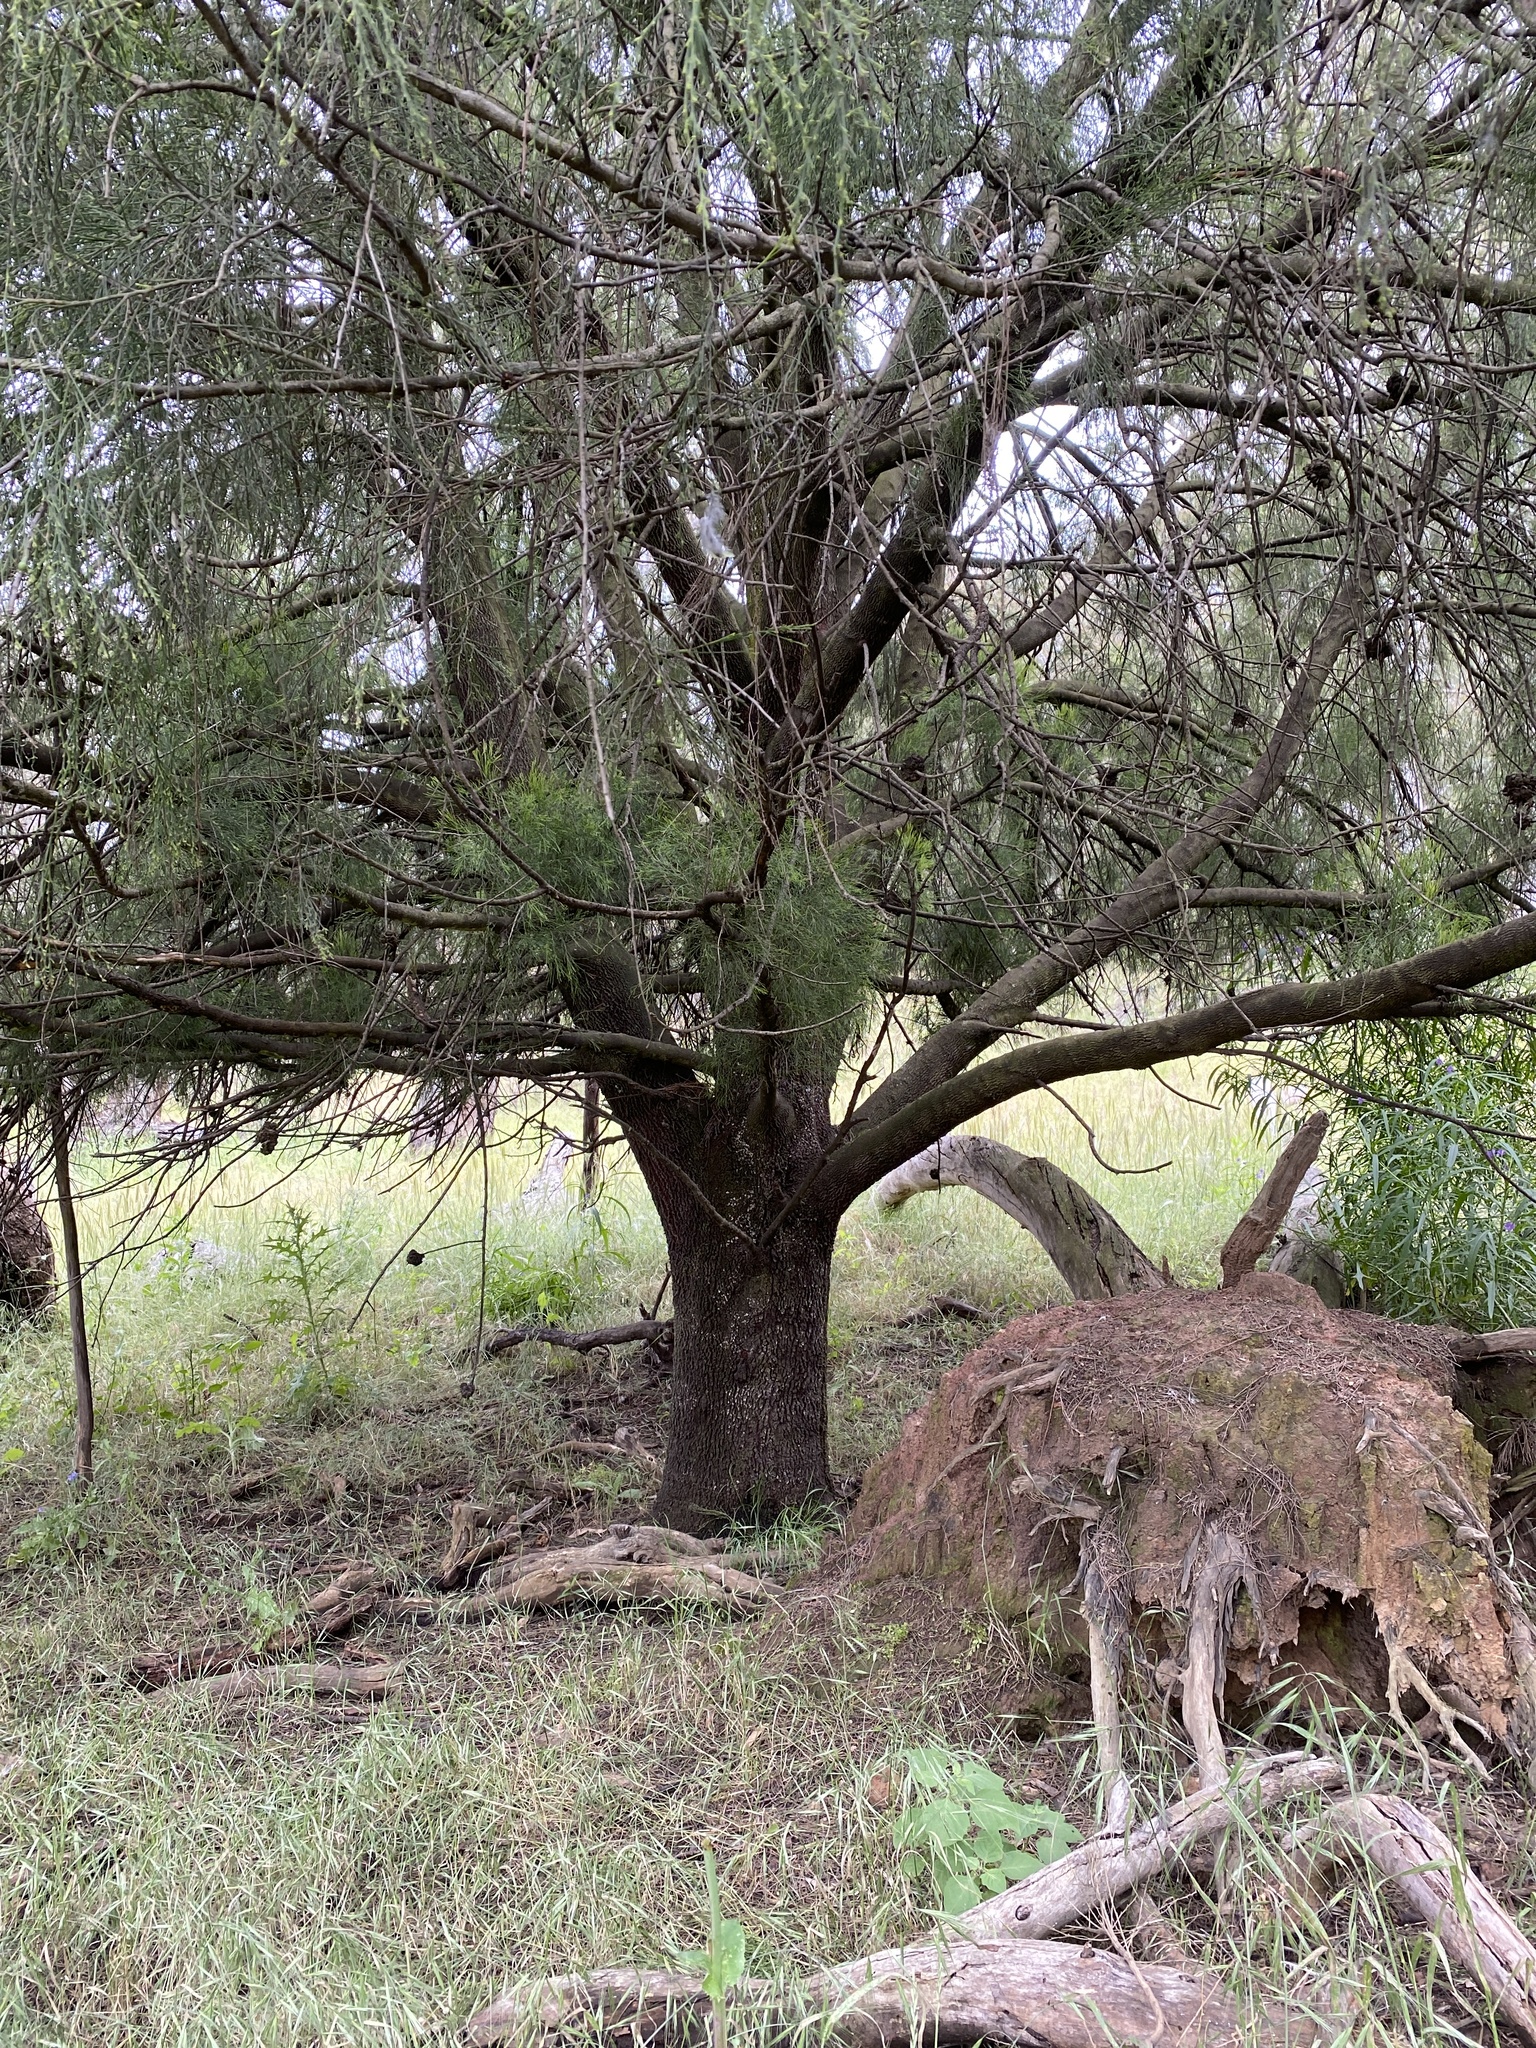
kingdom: Plantae
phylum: Tracheophyta
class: Magnoliopsida
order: Santalales
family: Santalaceae
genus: Exocarpos
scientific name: Exocarpos cupressiformis
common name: Cherry ballart
